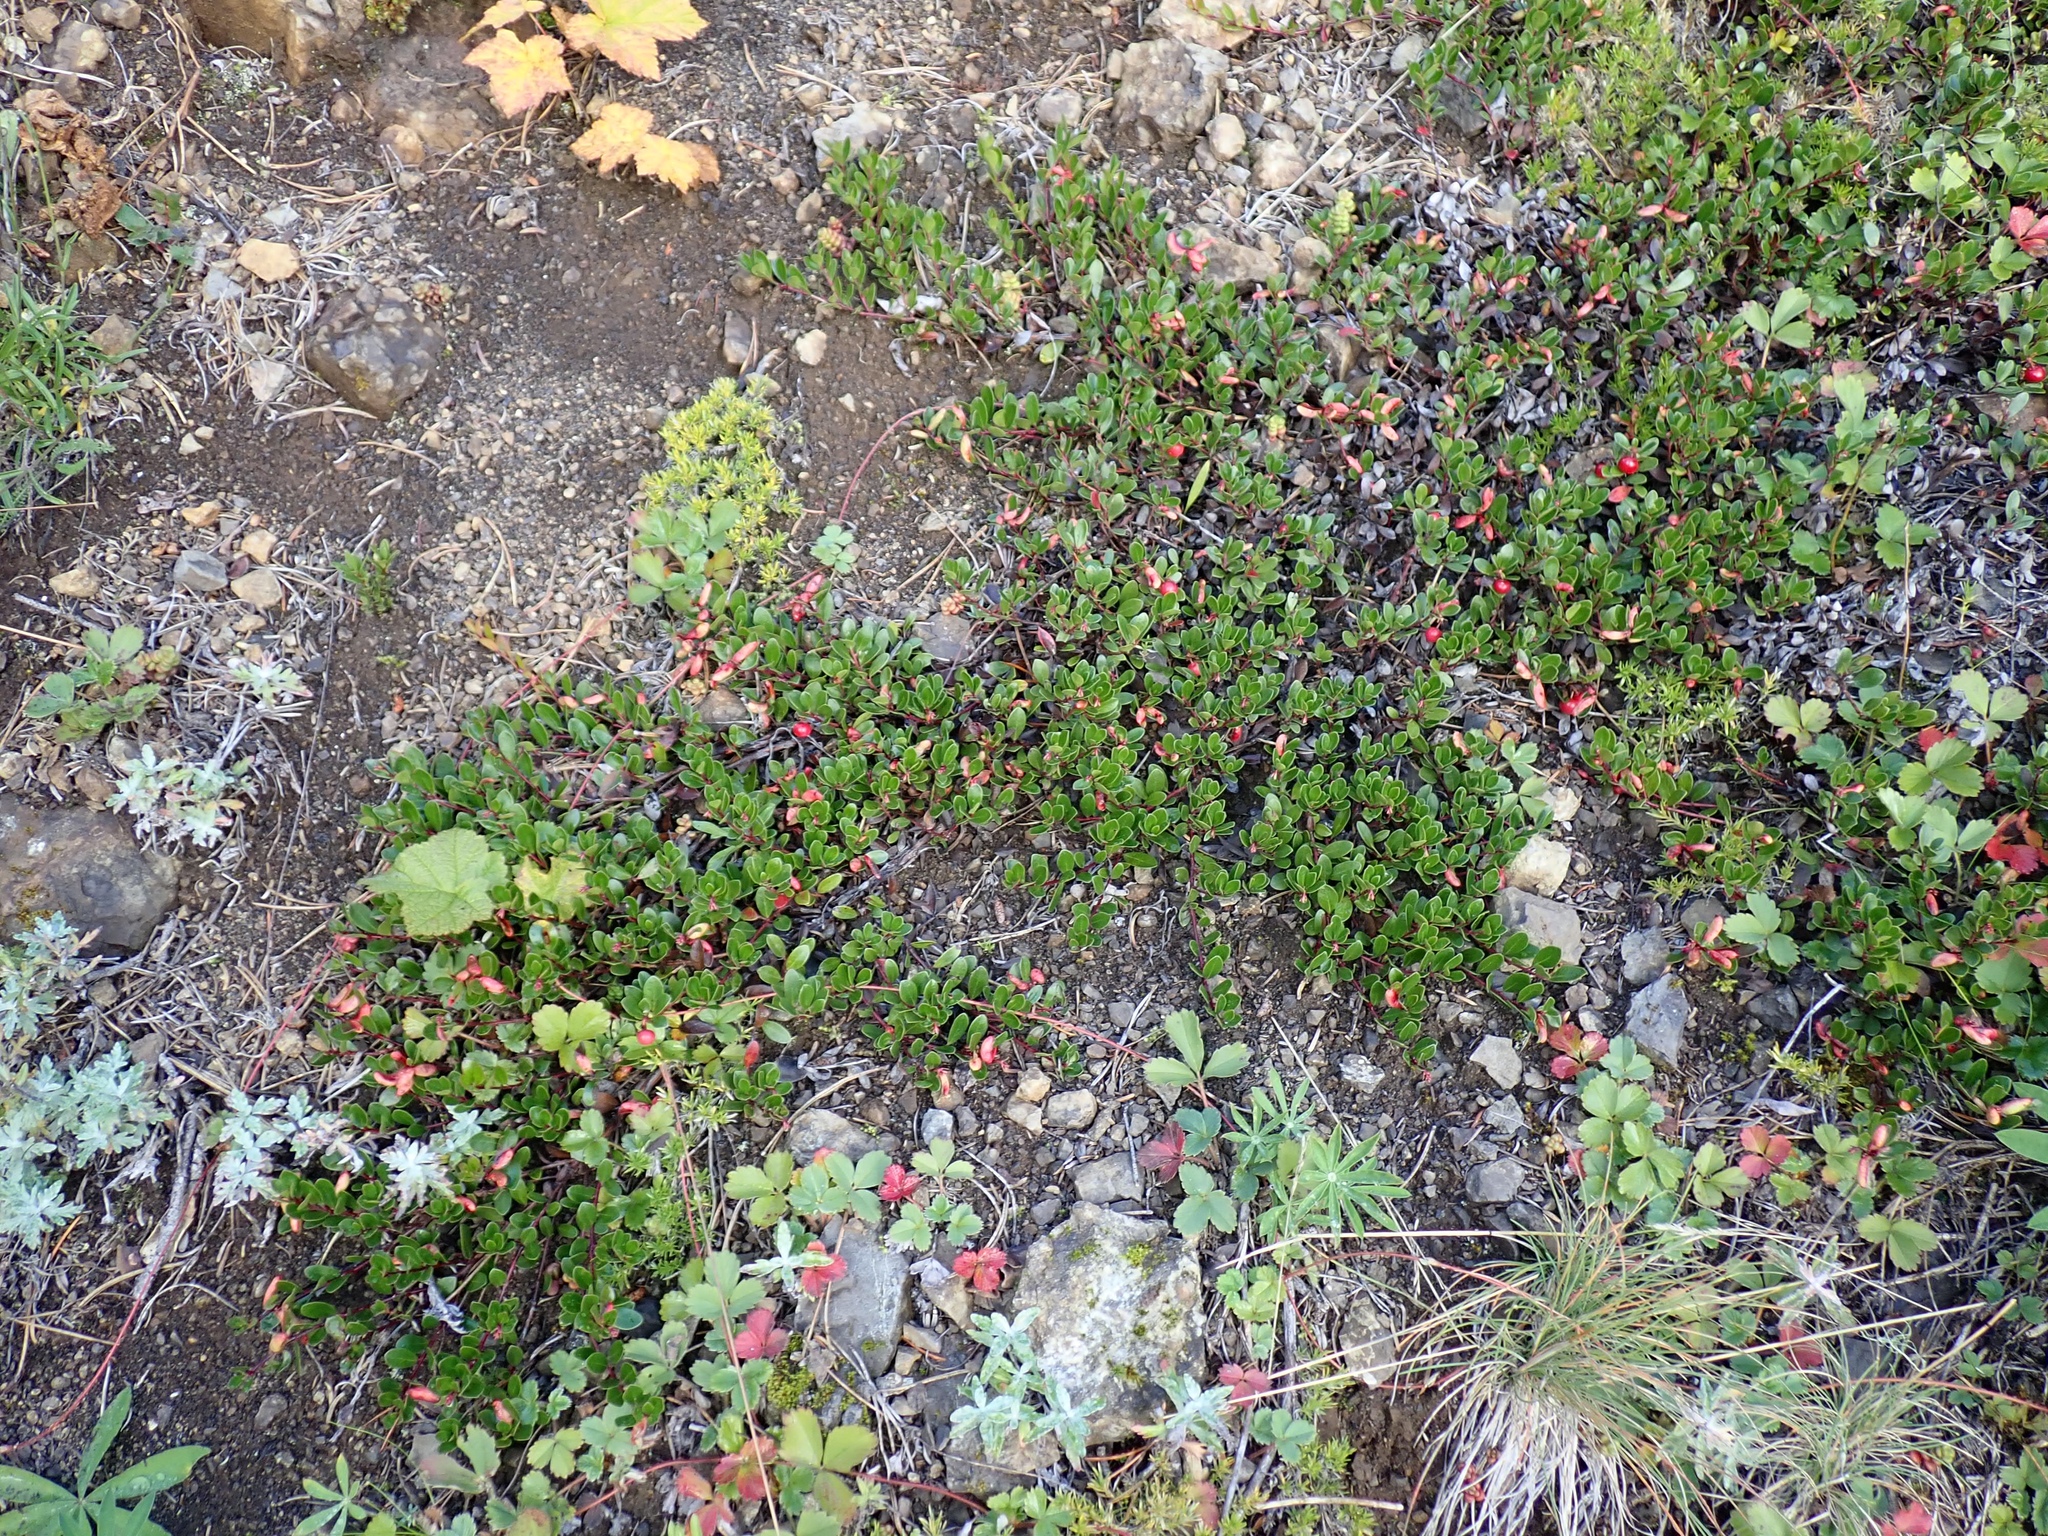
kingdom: Plantae
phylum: Tracheophyta
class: Magnoliopsida
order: Ericales
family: Ericaceae
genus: Arctostaphylos
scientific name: Arctostaphylos uva-ursi
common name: Bearberry
